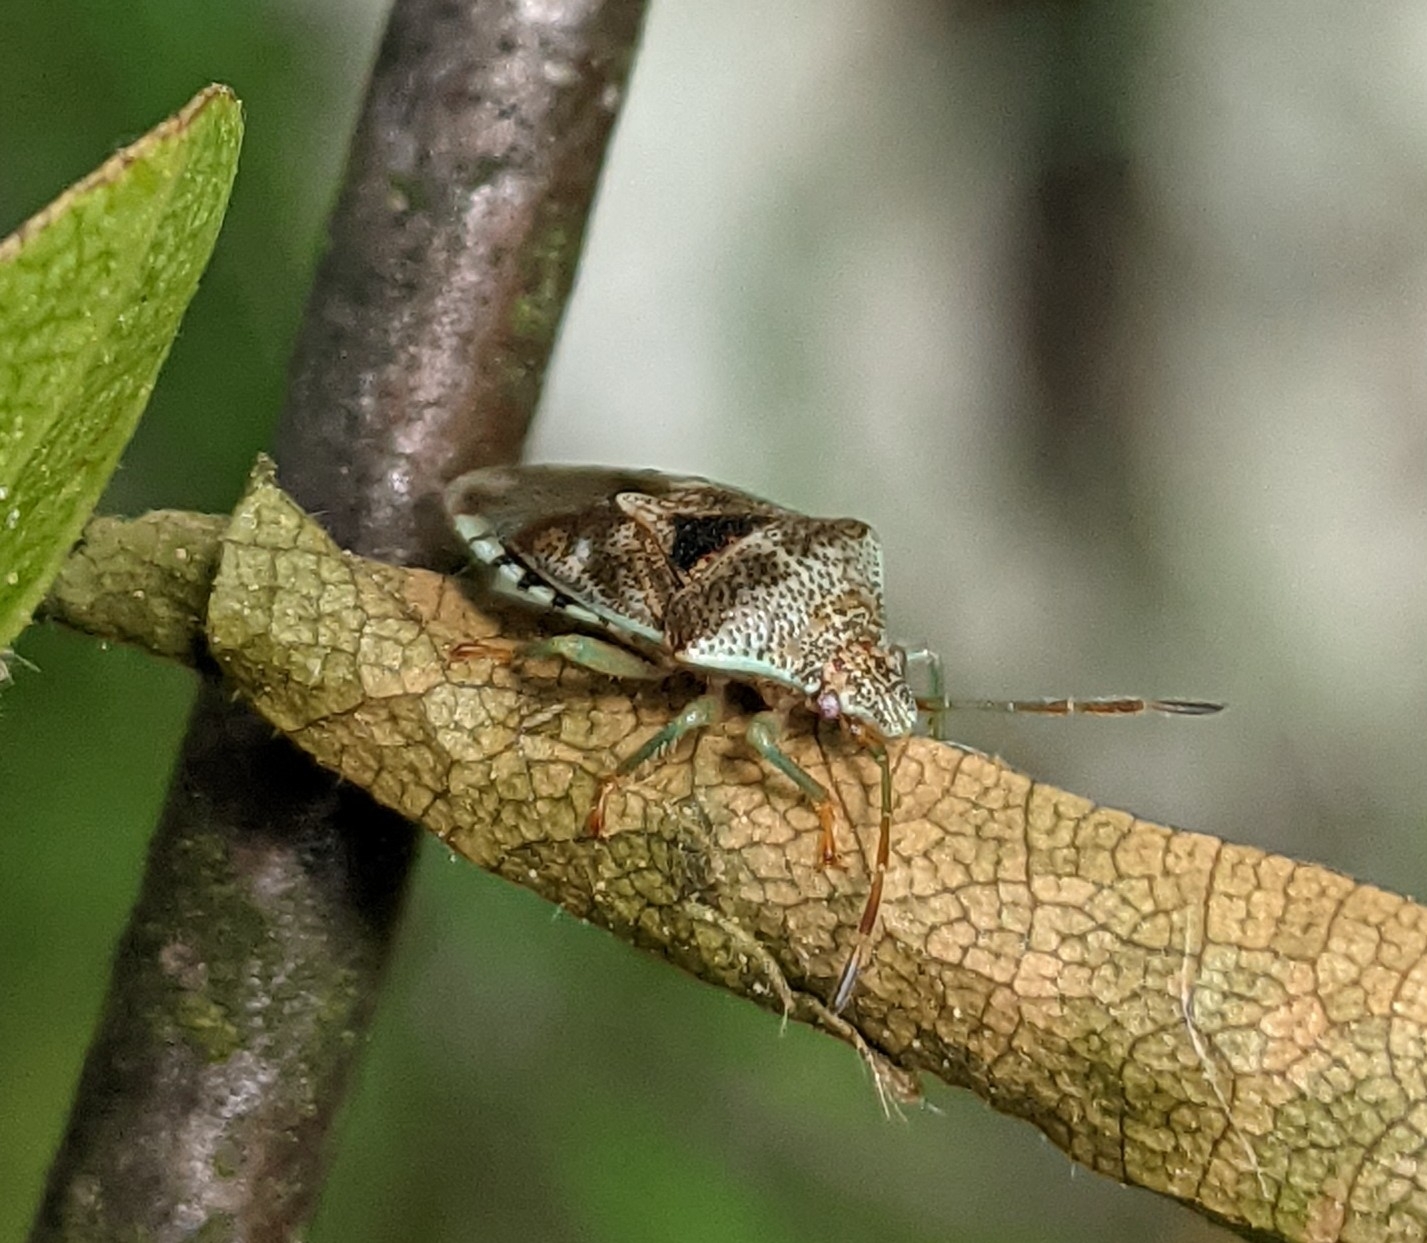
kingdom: Animalia
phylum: Arthropoda
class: Insecta
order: Hemiptera
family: Acanthosomatidae
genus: Elasmucha
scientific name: Elasmucha grisea
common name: Parent bug
